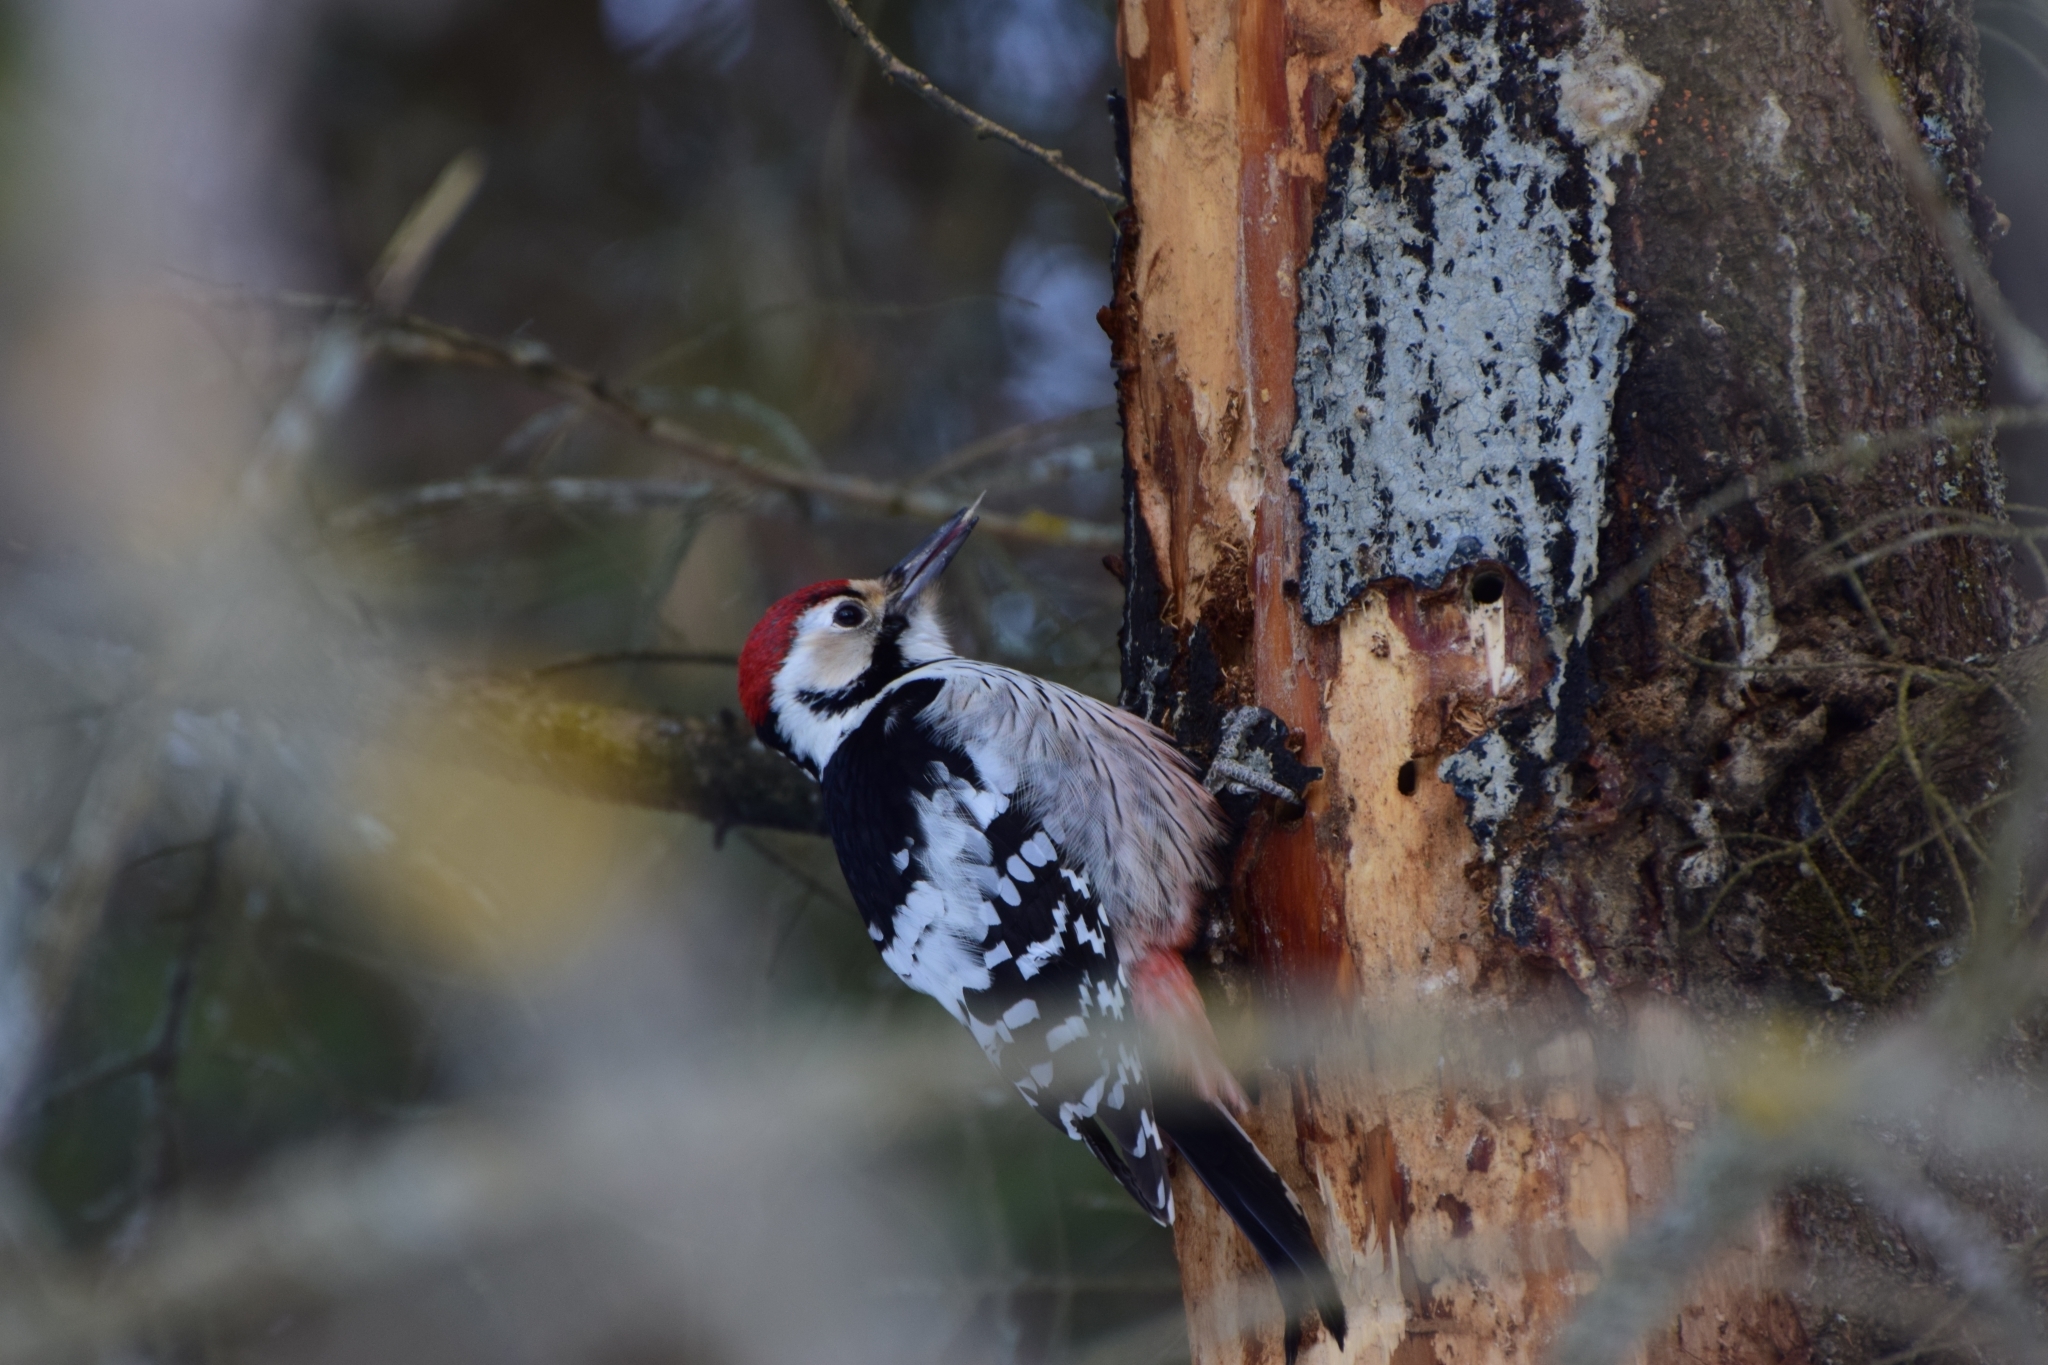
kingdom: Animalia
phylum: Chordata
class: Aves
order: Piciformes
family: Picidae
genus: Dendrocopos
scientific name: Dendrocopos leucotos
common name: White-backed woodpecker
